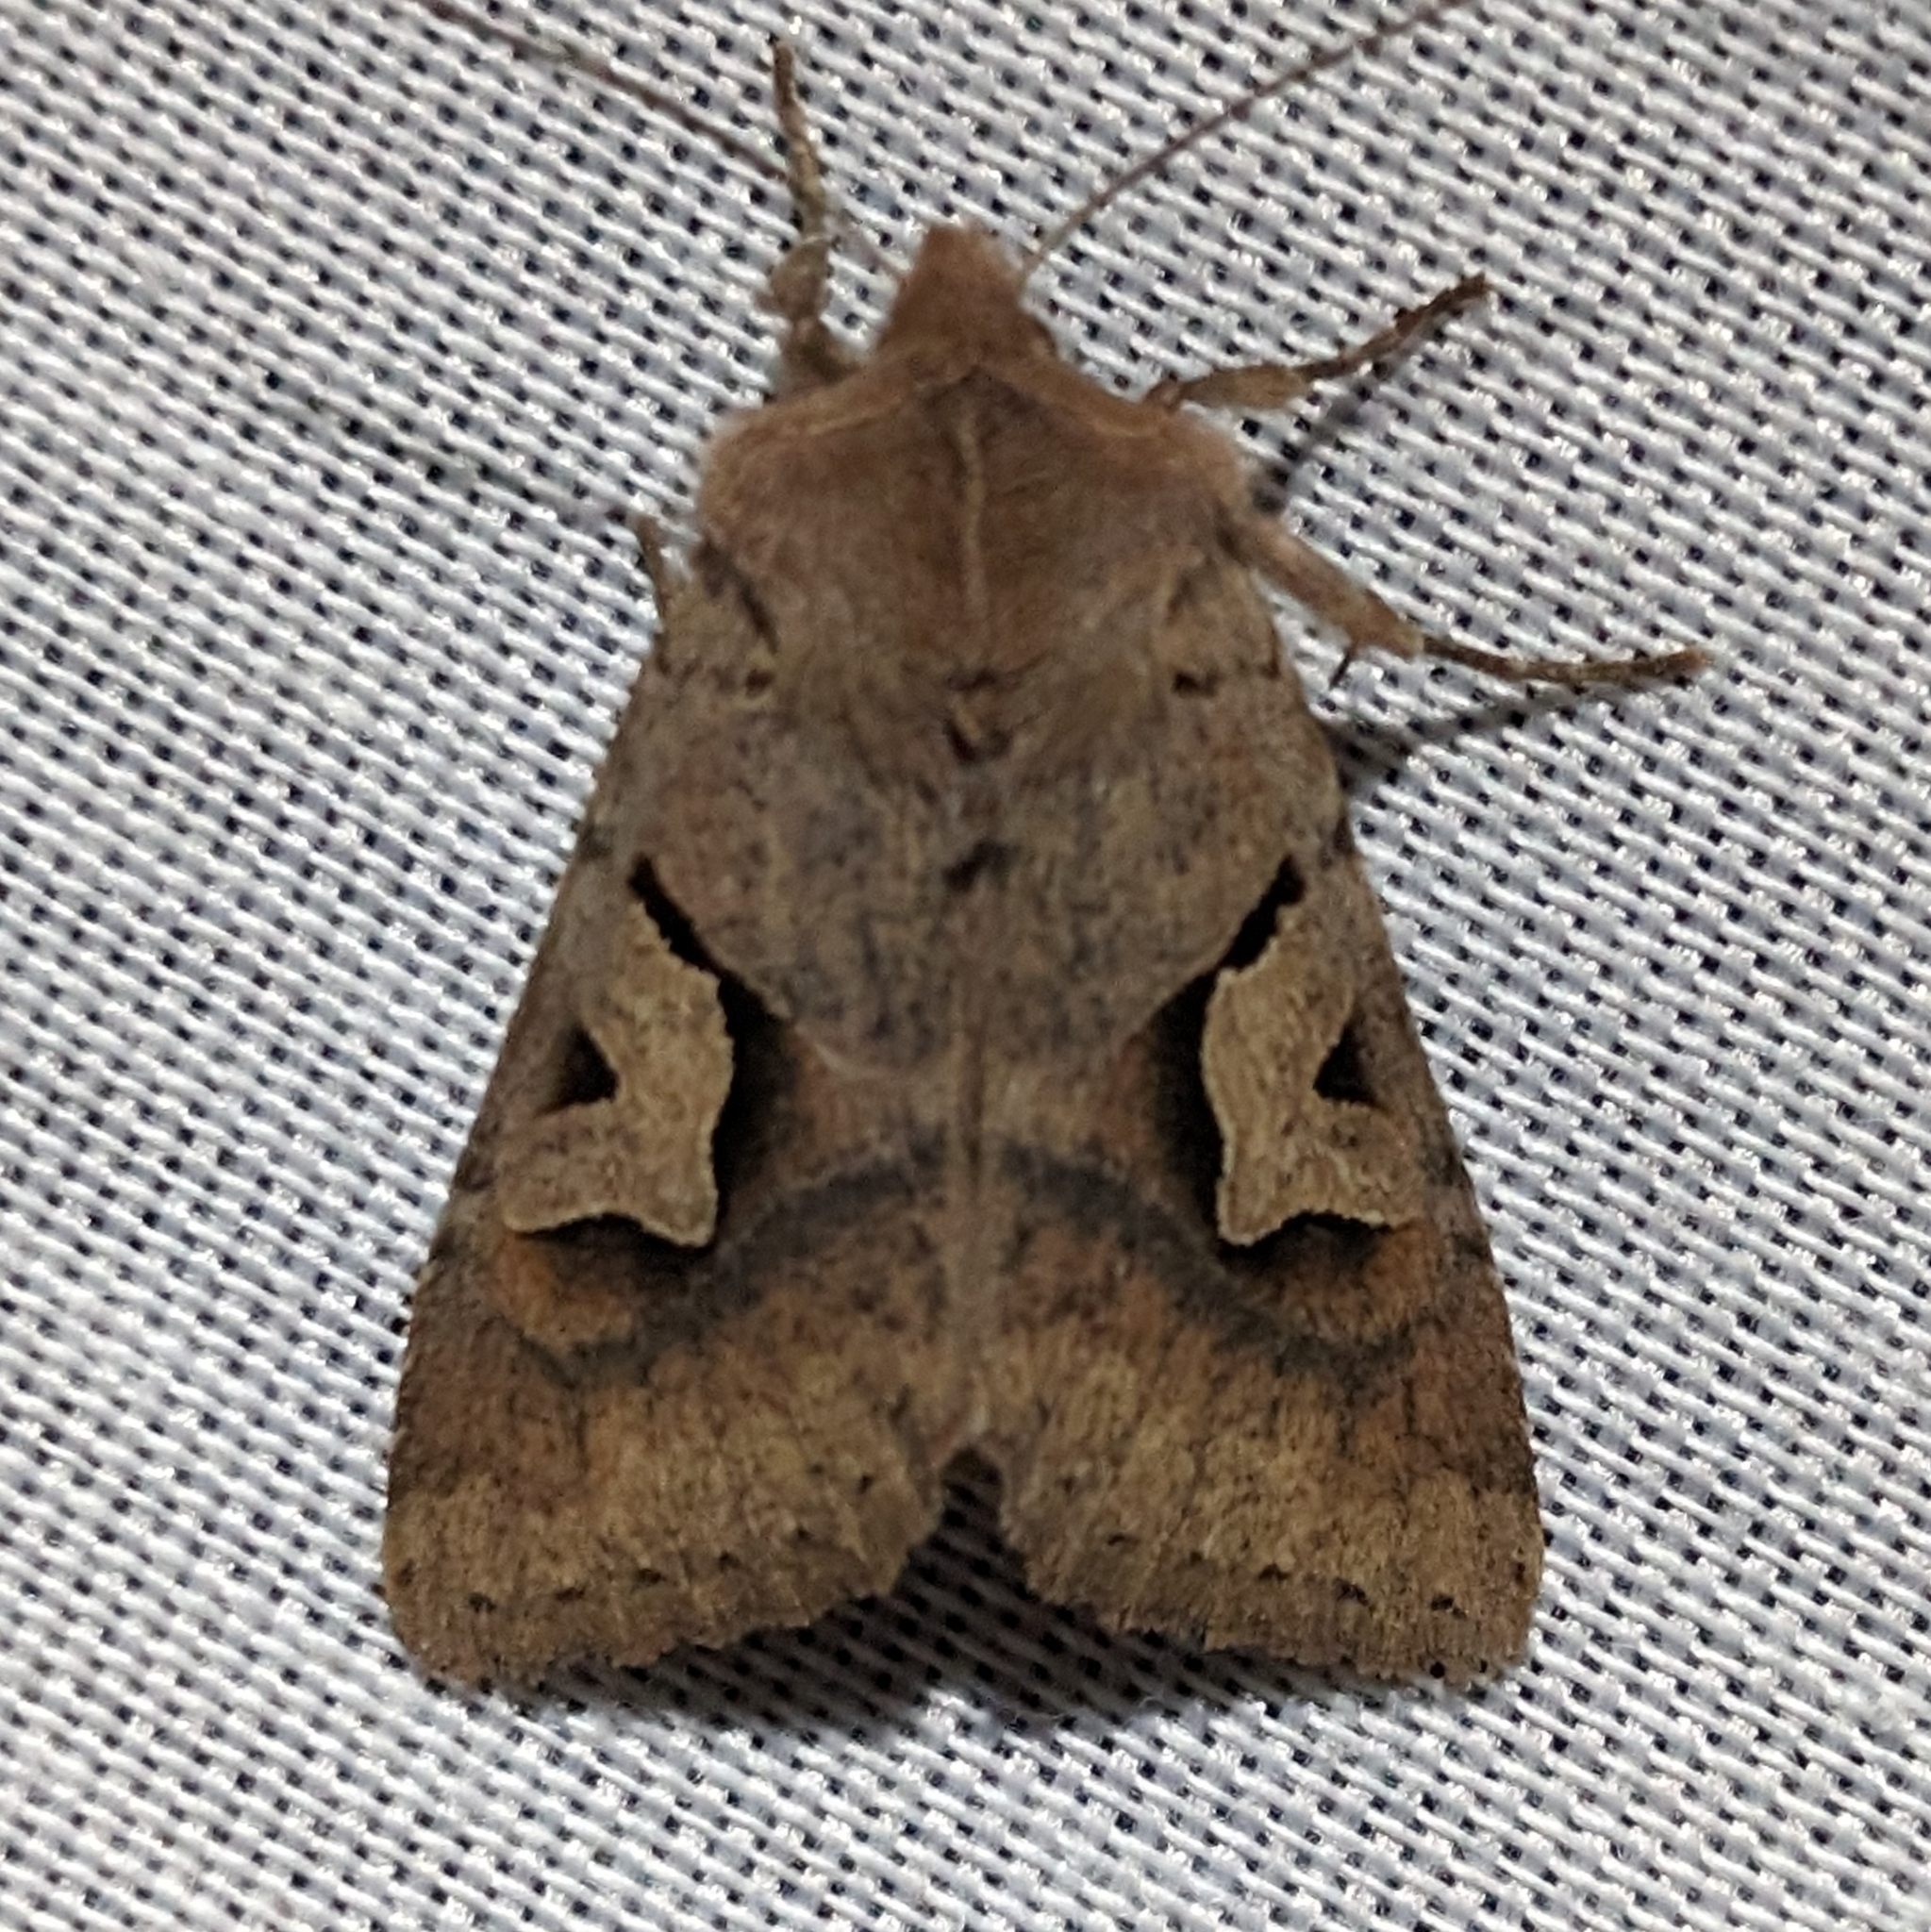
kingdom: Animalia
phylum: Arthropoda
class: Insecta
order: Lepidoptera
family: Noctuidae
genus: Acerra
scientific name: Acerra normalis
